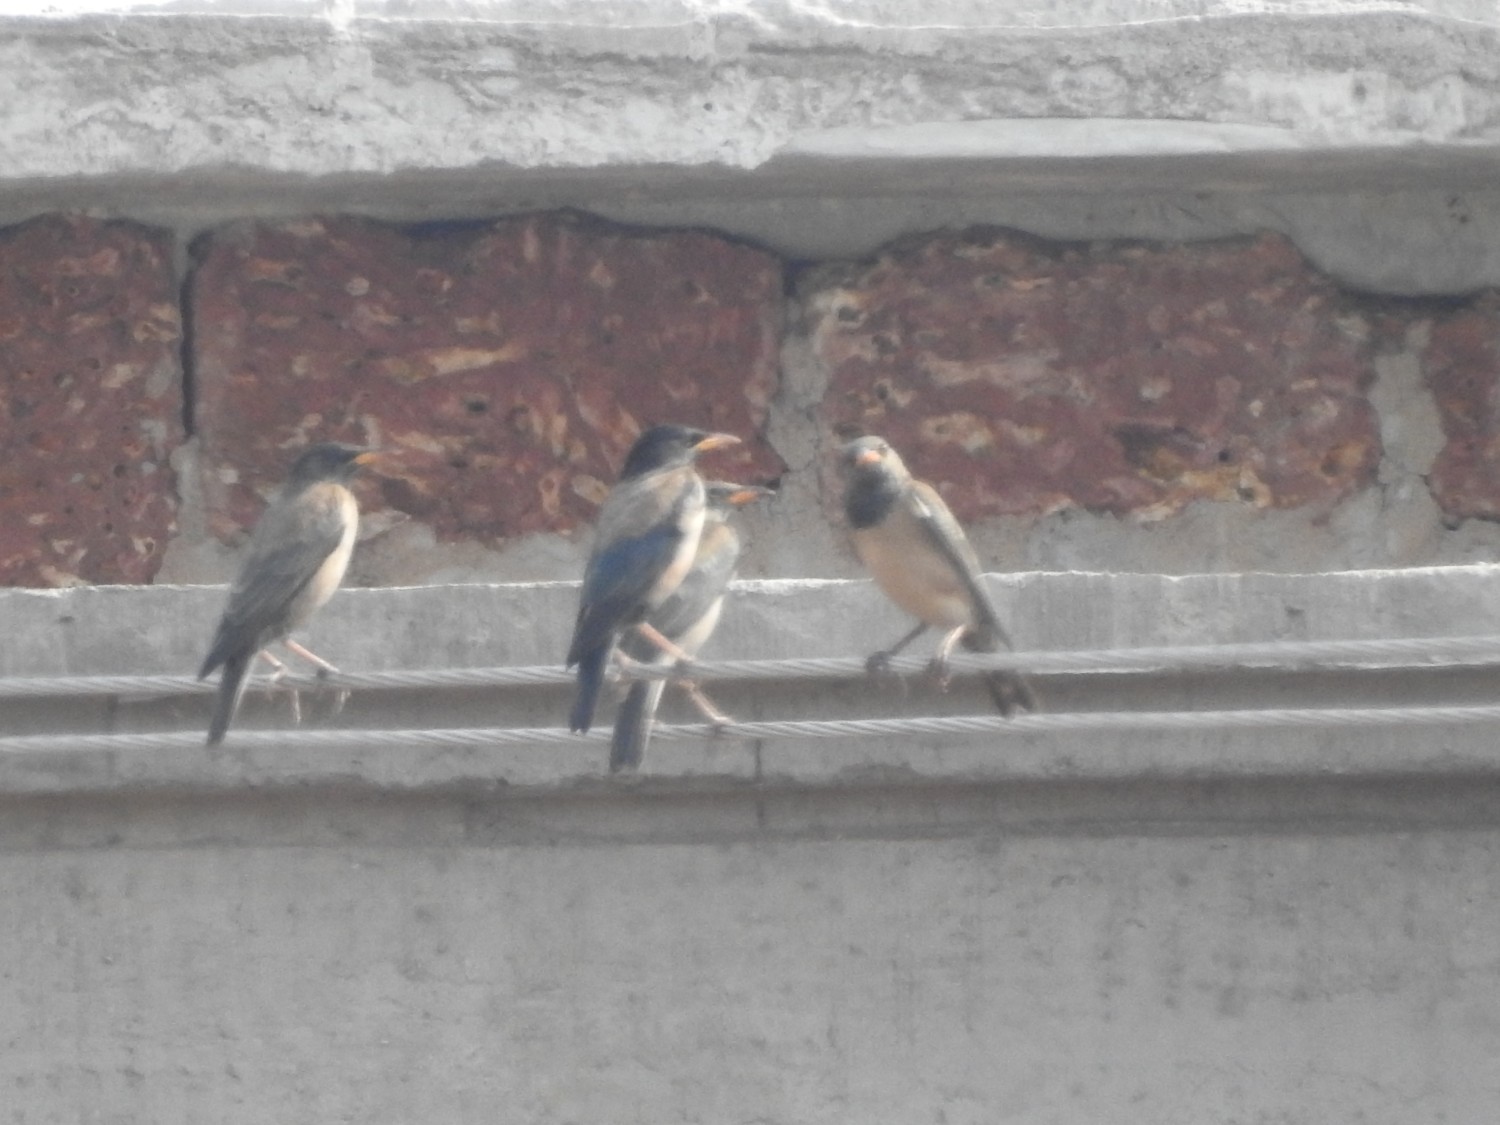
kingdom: Animalia
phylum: Chordata
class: Aves
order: Passeriformes
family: Sturnidae
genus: Pastor
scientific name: Pastor roseus
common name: Rosy starling
